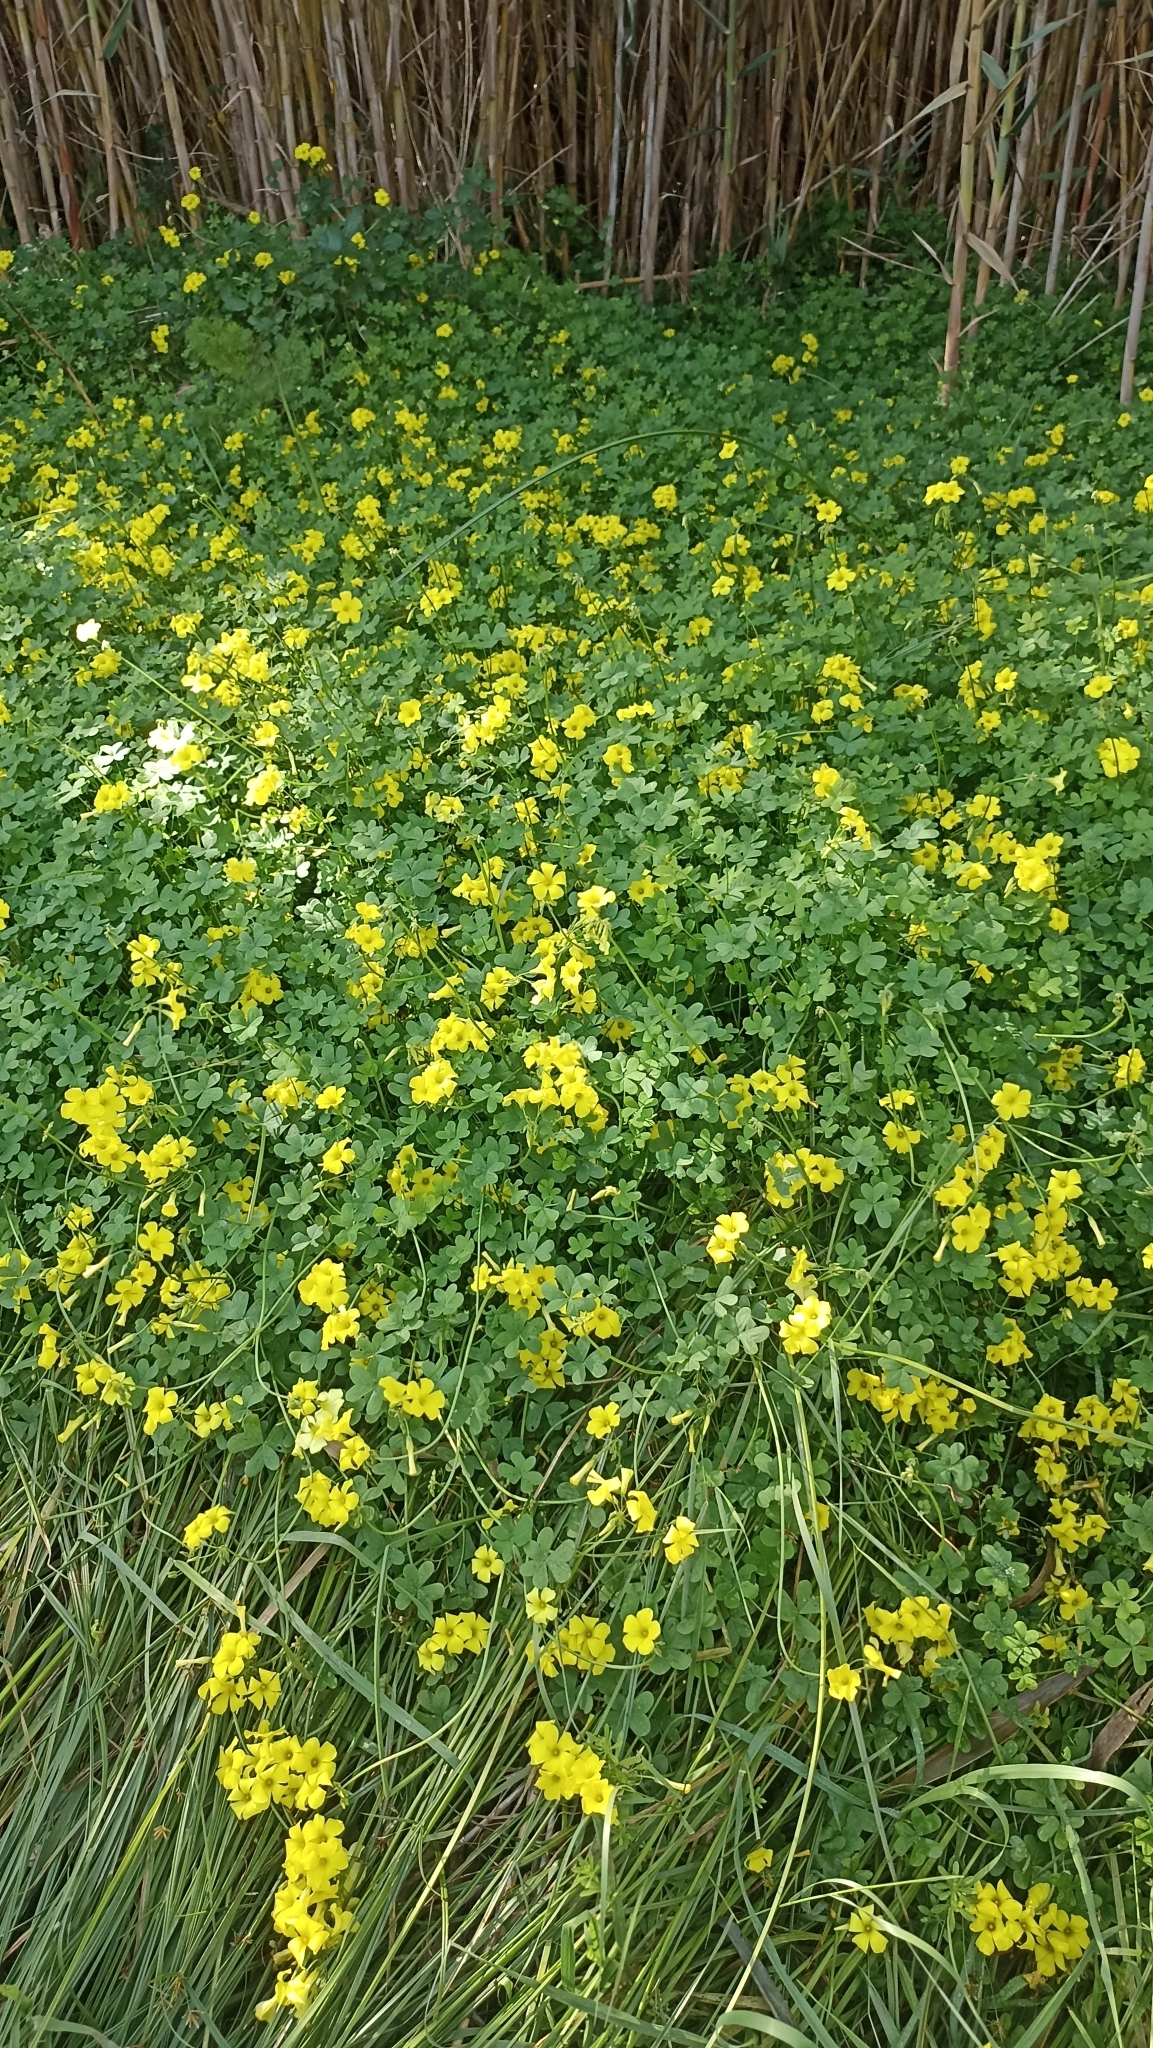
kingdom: Plantae
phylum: Tracheophyta
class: Magnoliopsida
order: Oxalidales
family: Oxalidaceae
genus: Oxalis
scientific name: Oxalis pes-caprae
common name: Bermuda-buttercup
